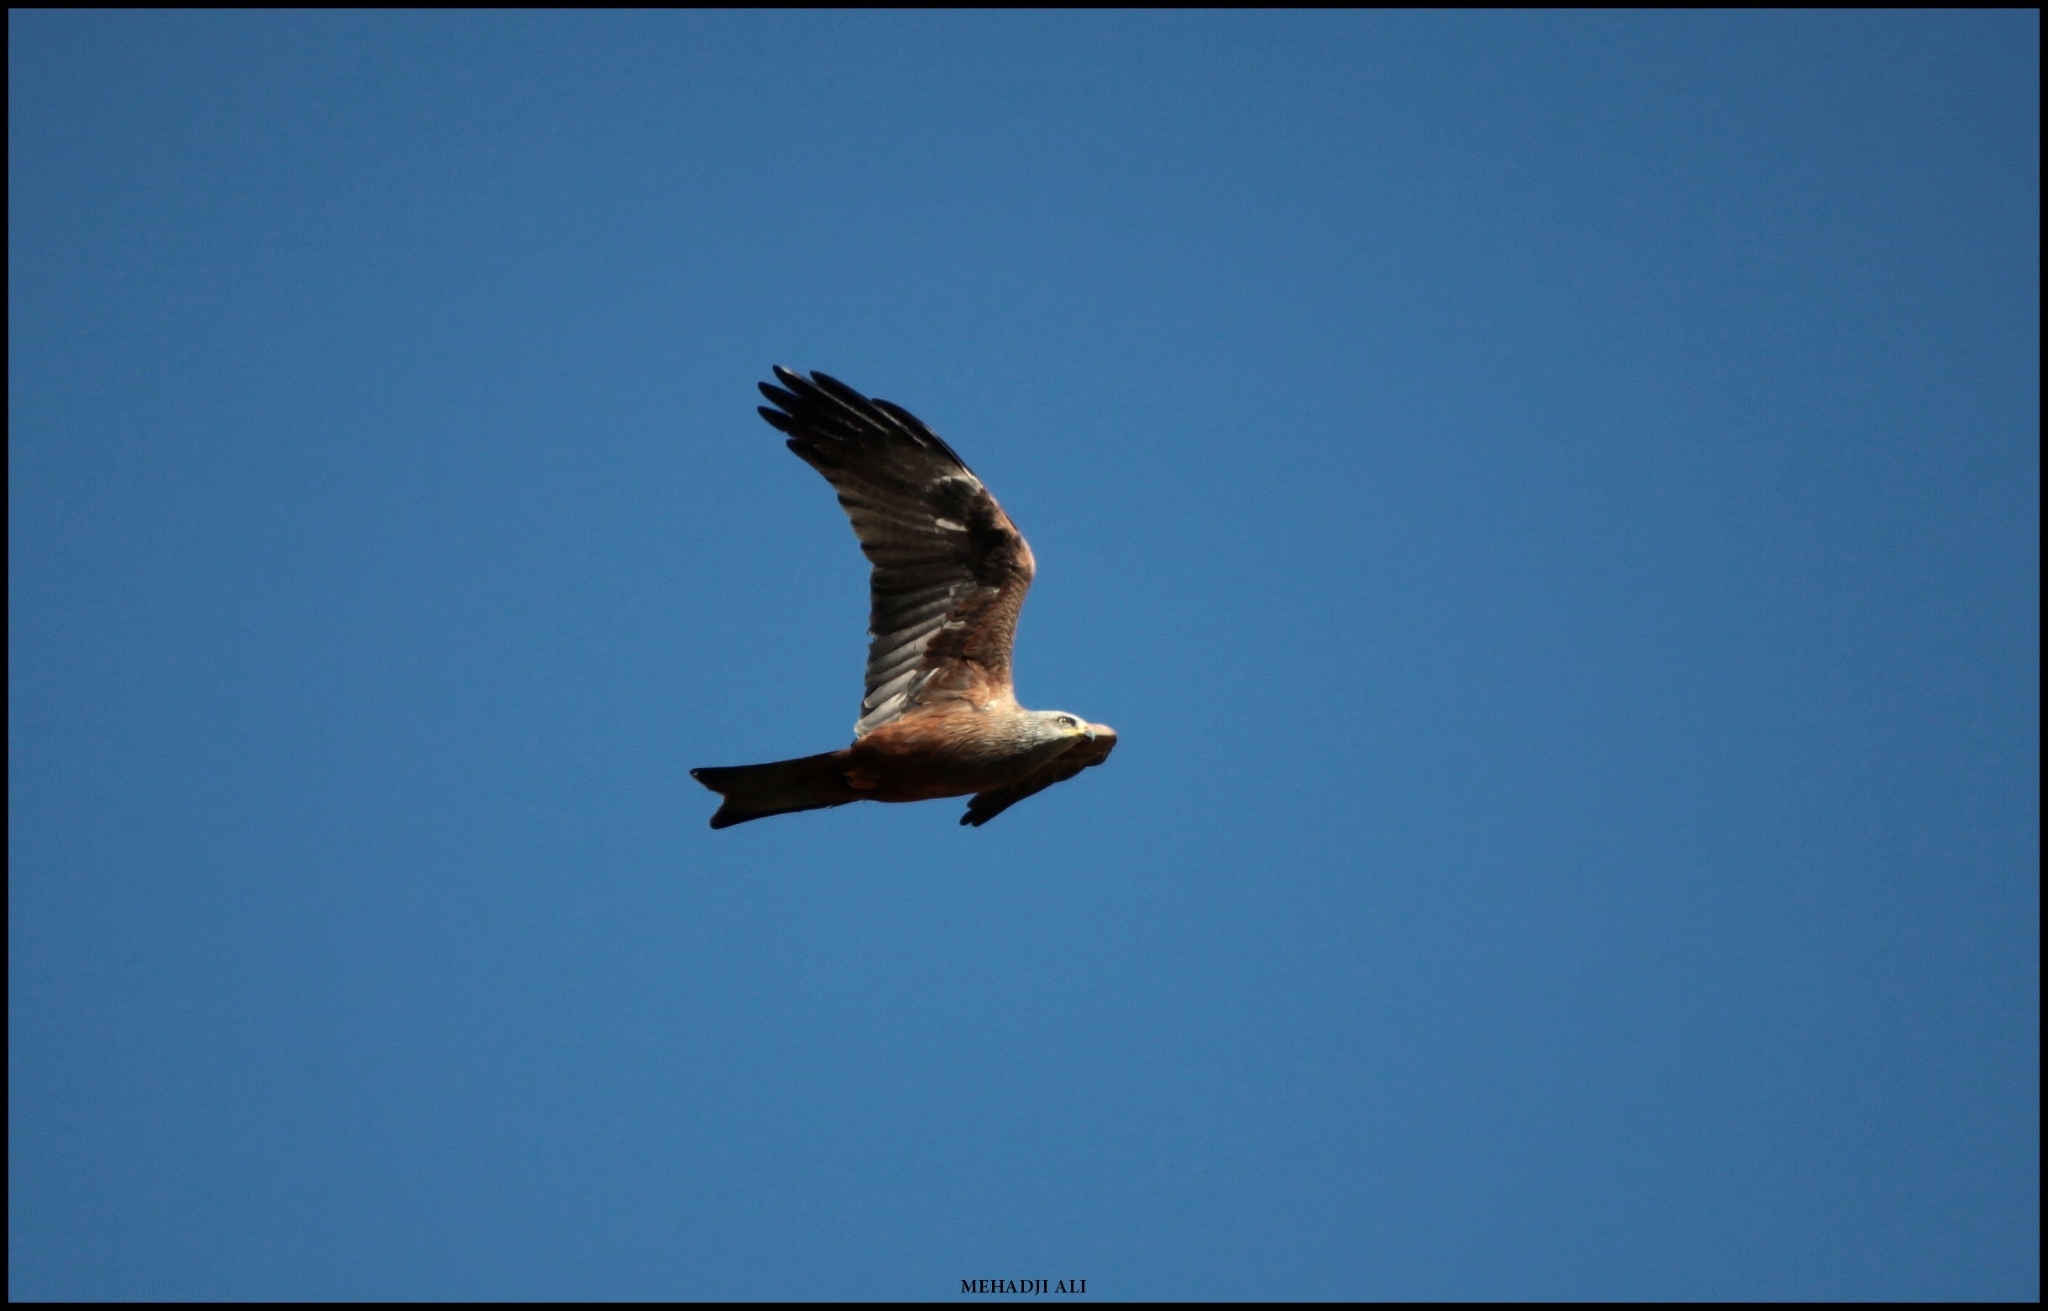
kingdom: Animalia
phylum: Chordata
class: Aves
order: Accipitriformes
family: Accipitridae
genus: Milvus
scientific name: Milvus migrans
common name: Black kite
